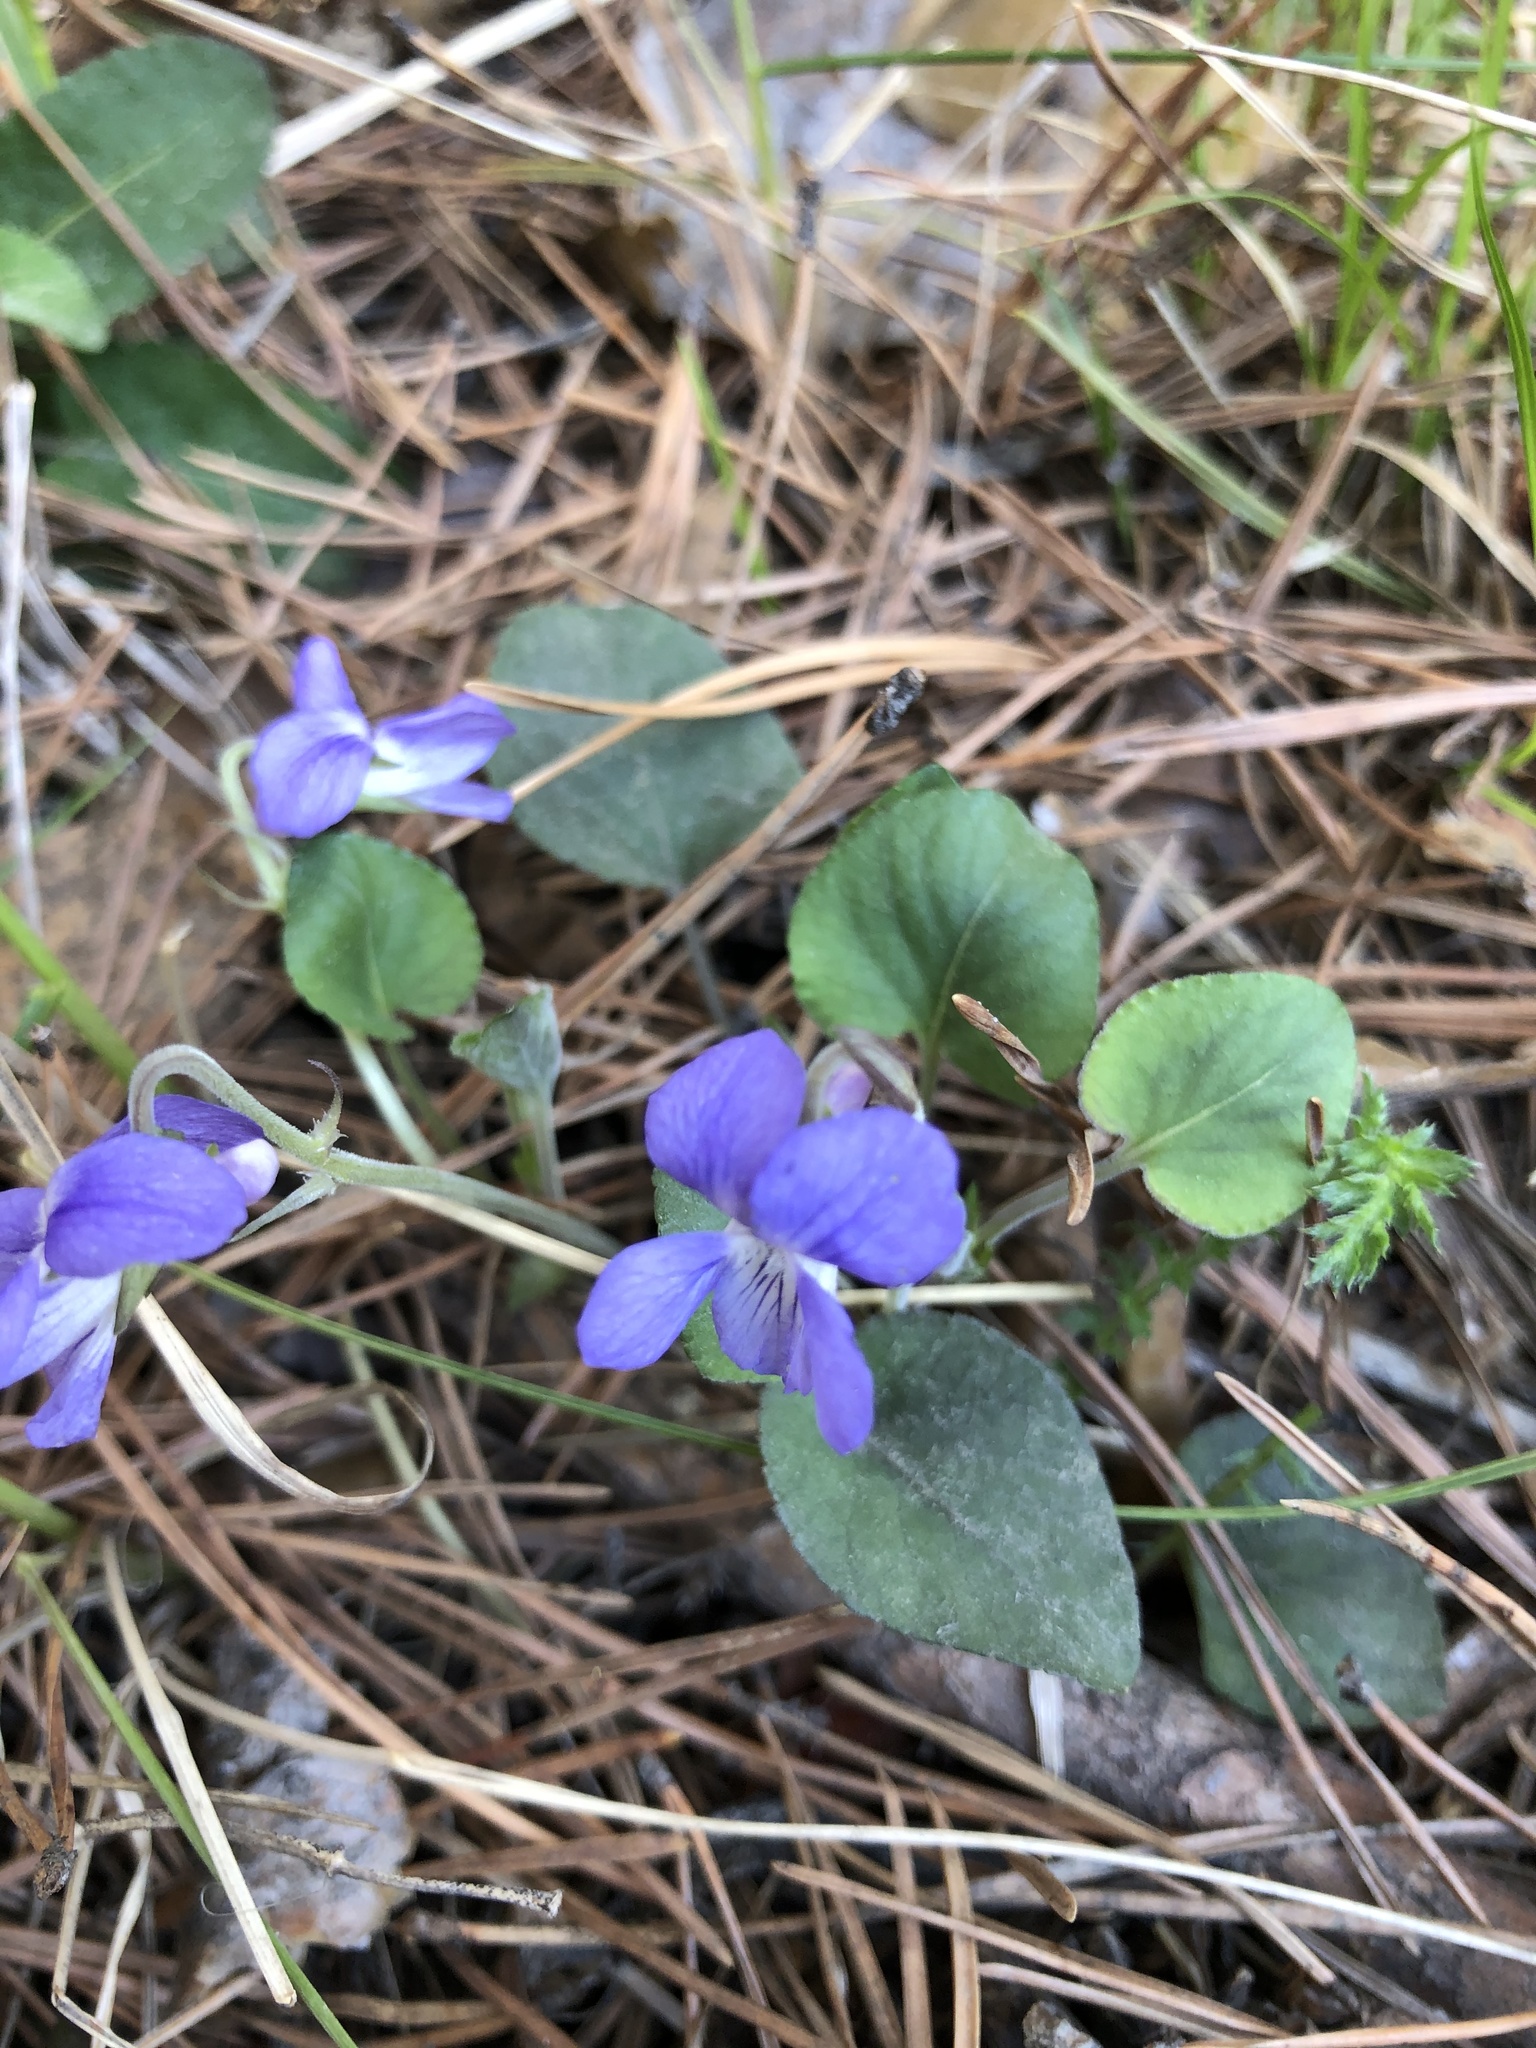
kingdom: Plantae
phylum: Tracheophyta
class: Magnoliopsida
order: Malpighiales
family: Violaceae
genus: Viola
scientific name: Viola rupestris
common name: Teesdale violet
